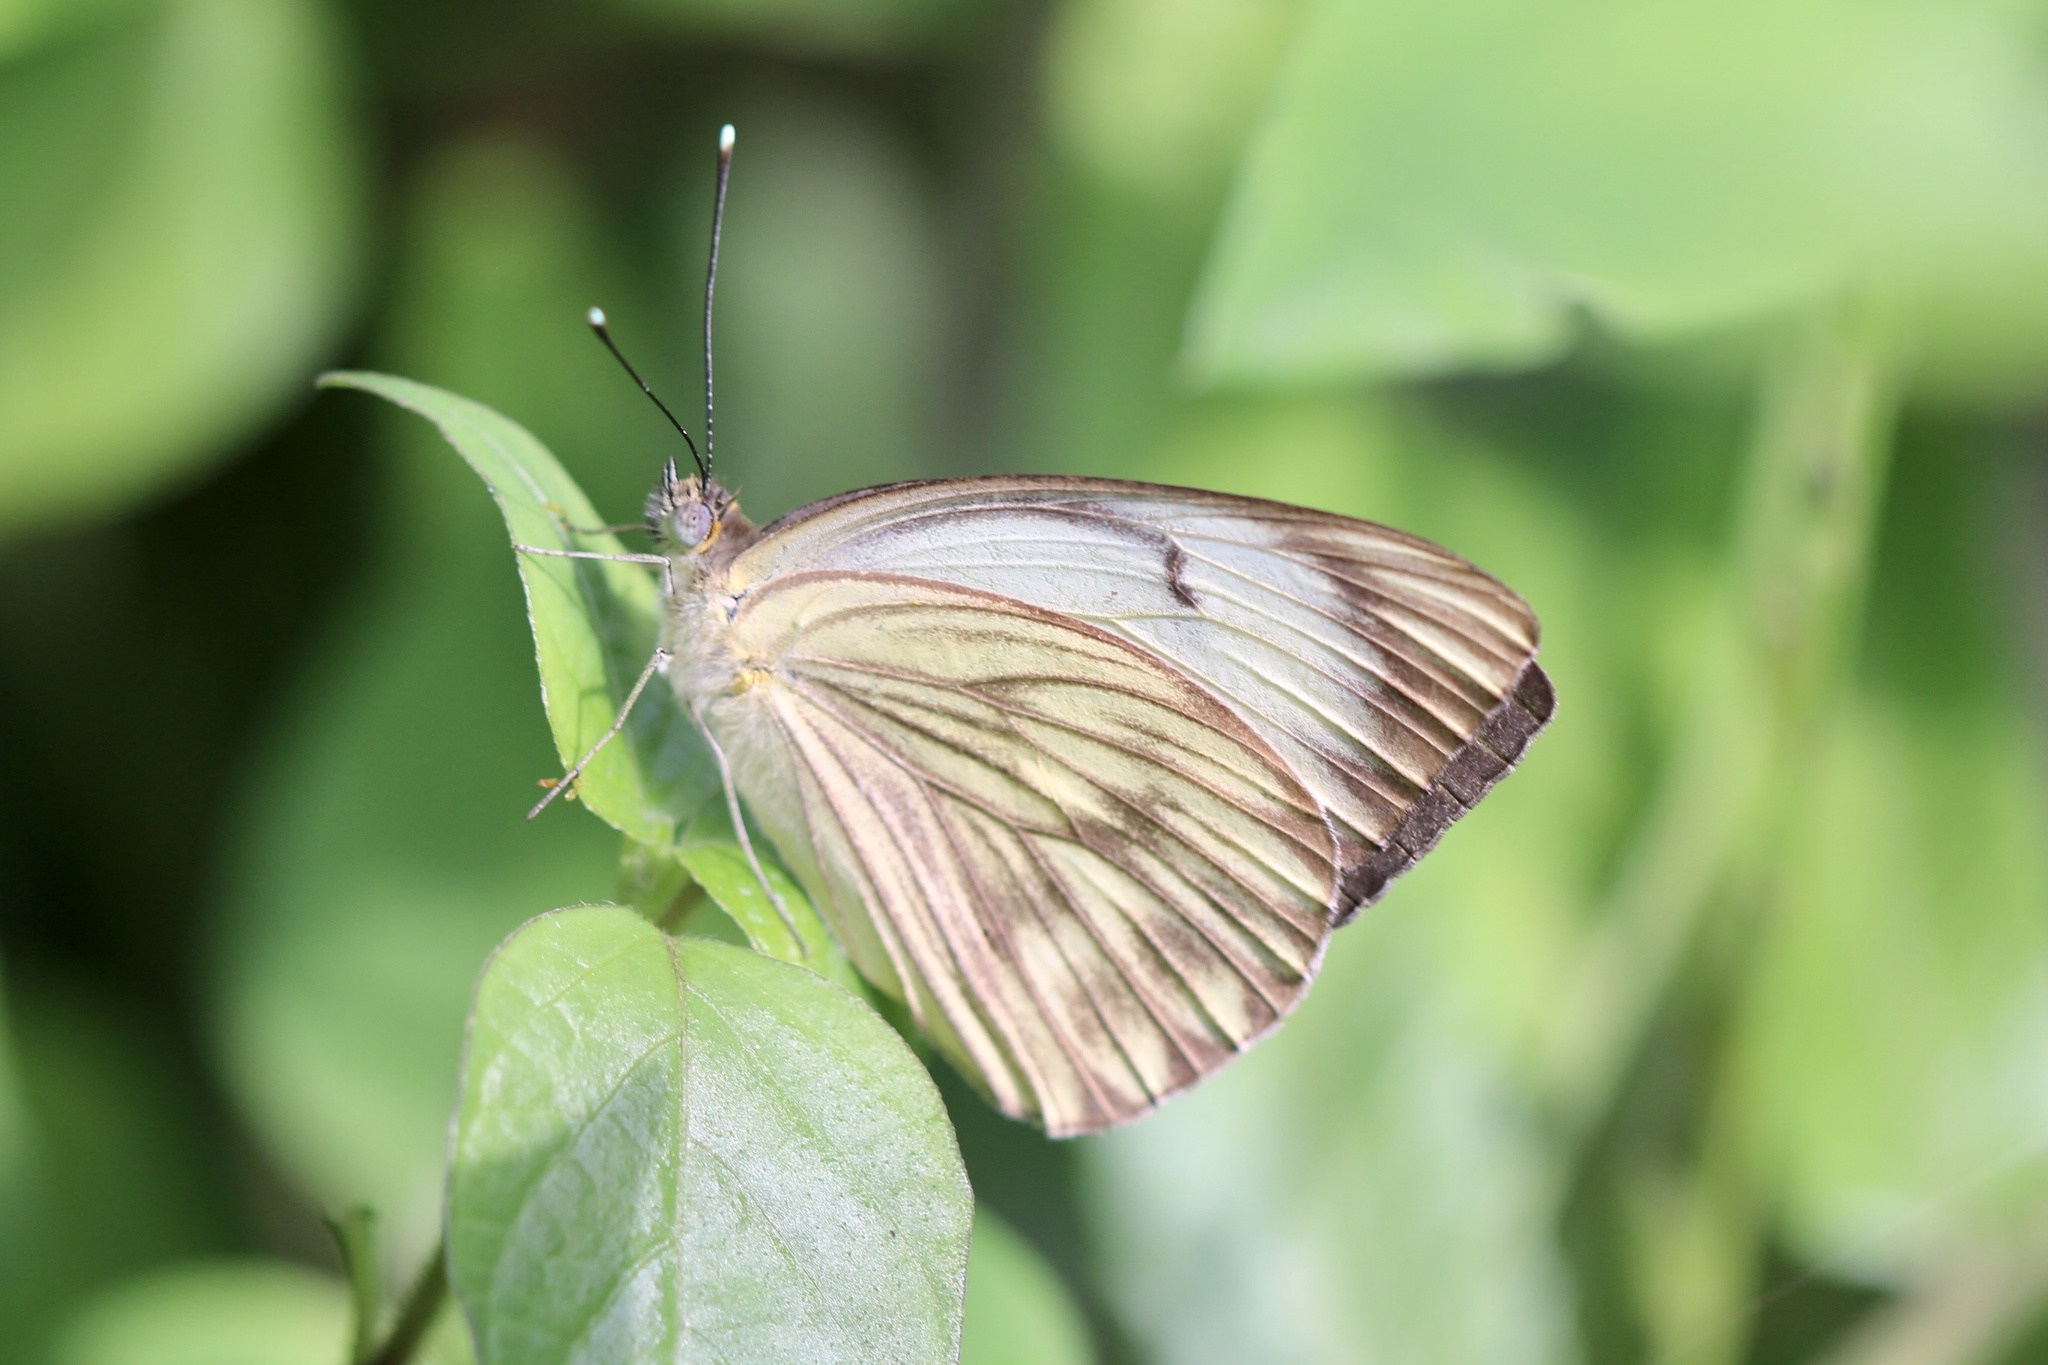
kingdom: Animalia
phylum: Arthropoda
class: Insecta
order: Lepidoptera
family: Pieridae
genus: Ascia
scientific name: Ascia monuste
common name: Great southern white
